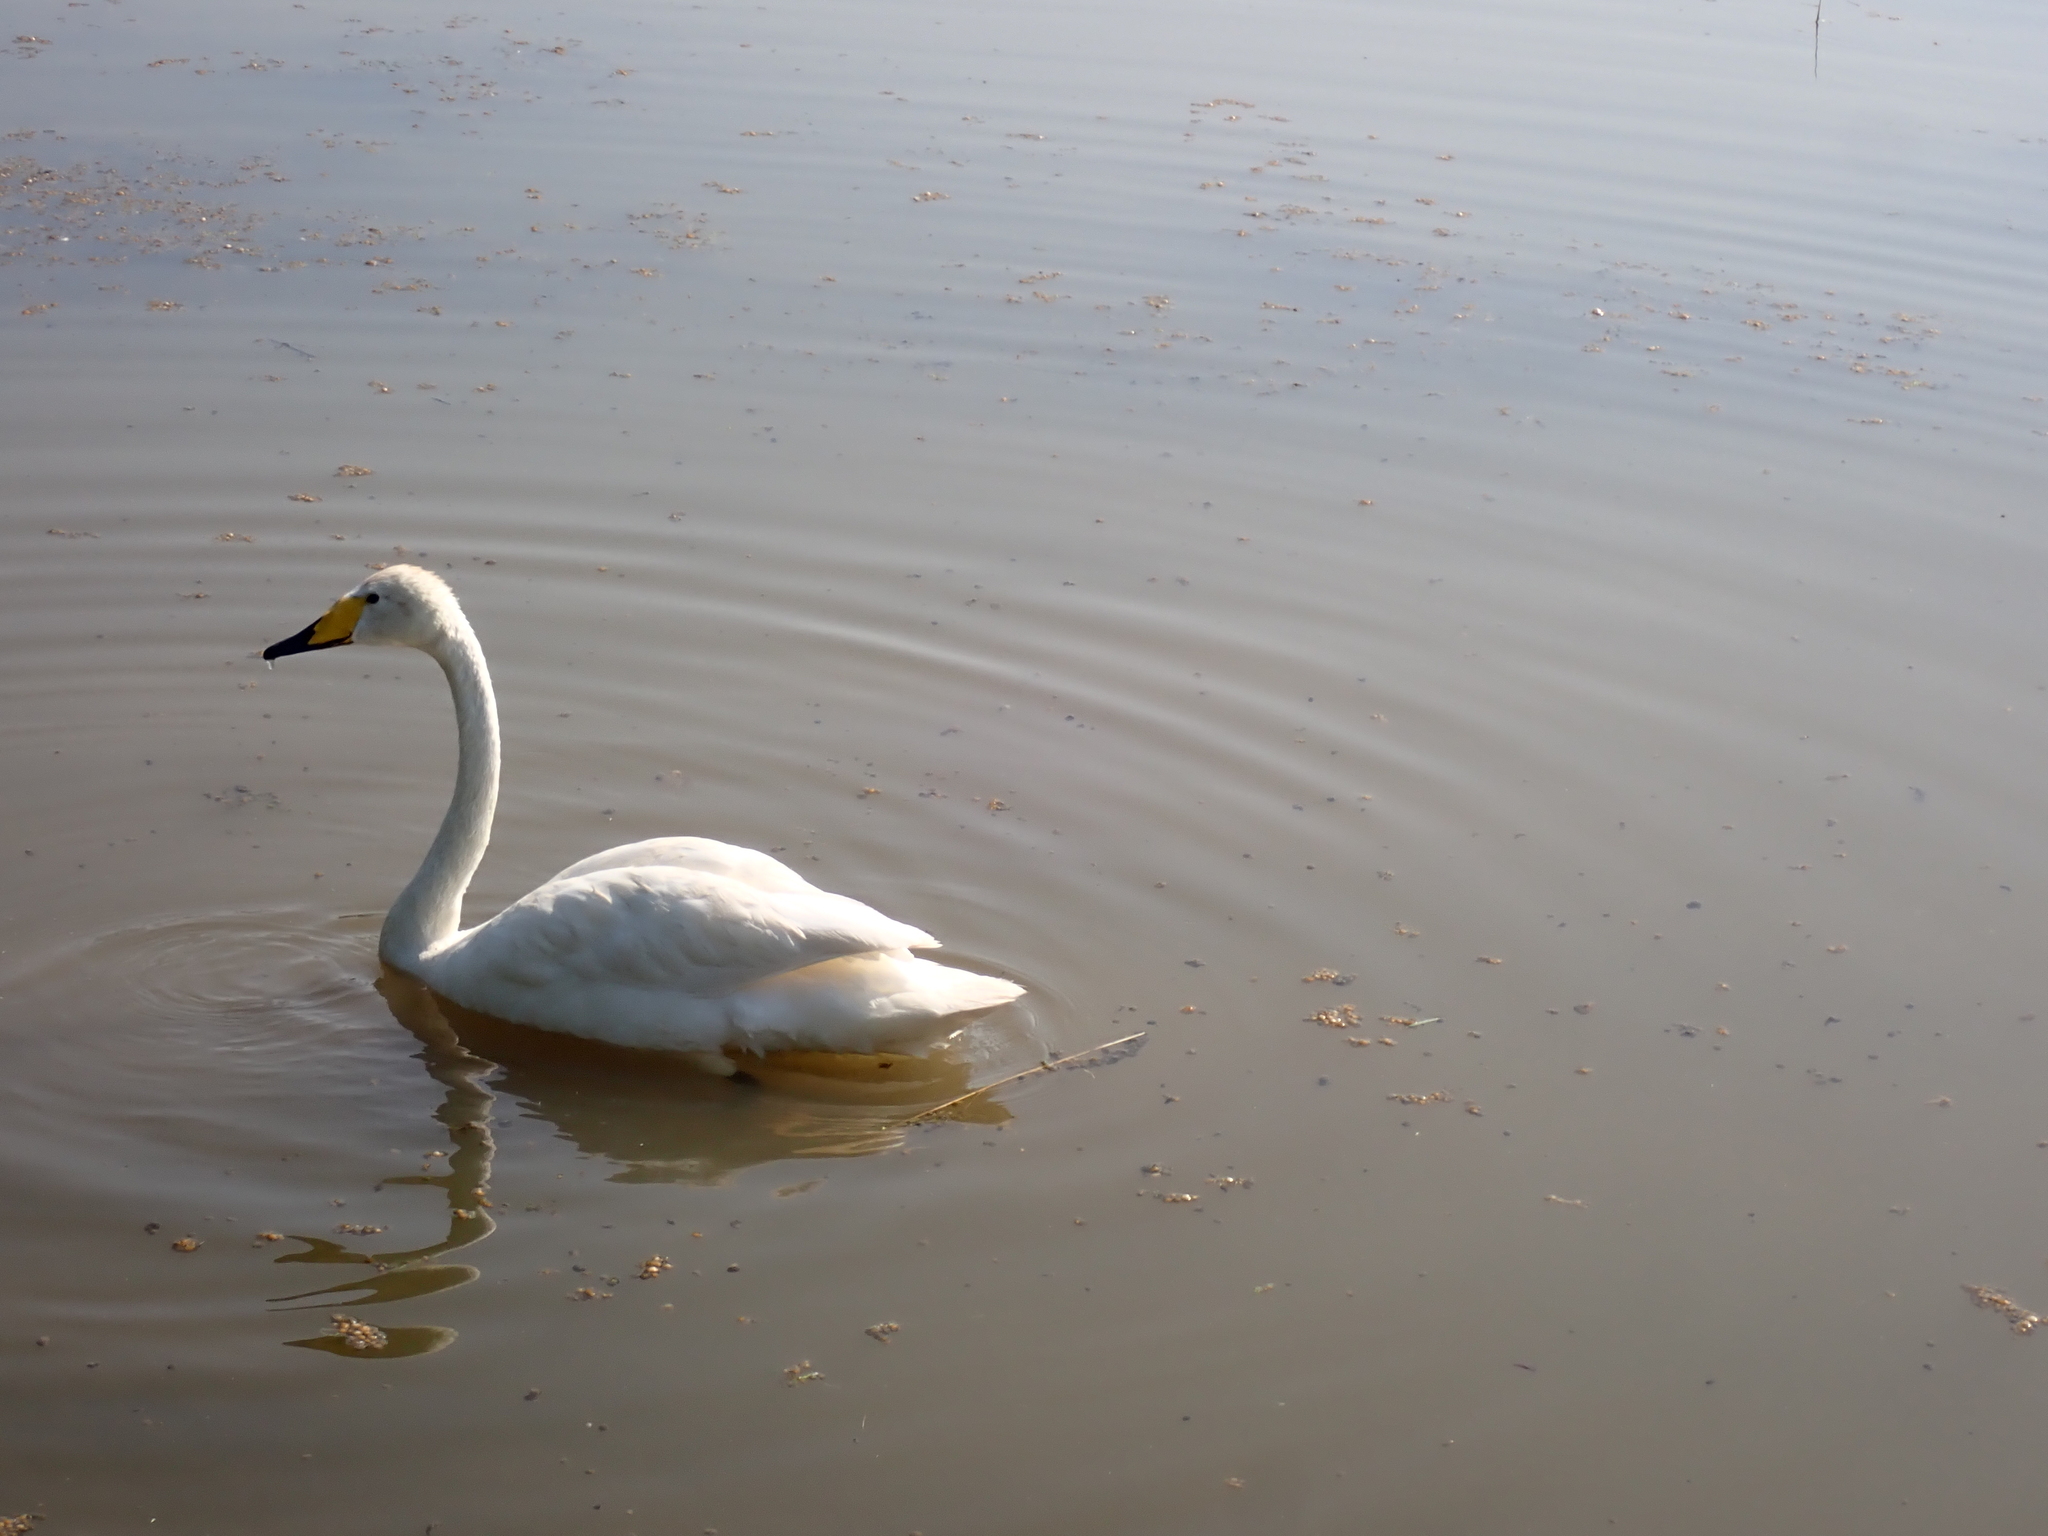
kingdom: Animalia
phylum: Chordata
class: Aves
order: Anseriformes
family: Anatidae
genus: Cygnus
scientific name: Cygnus cygnus
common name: Whooper swan
